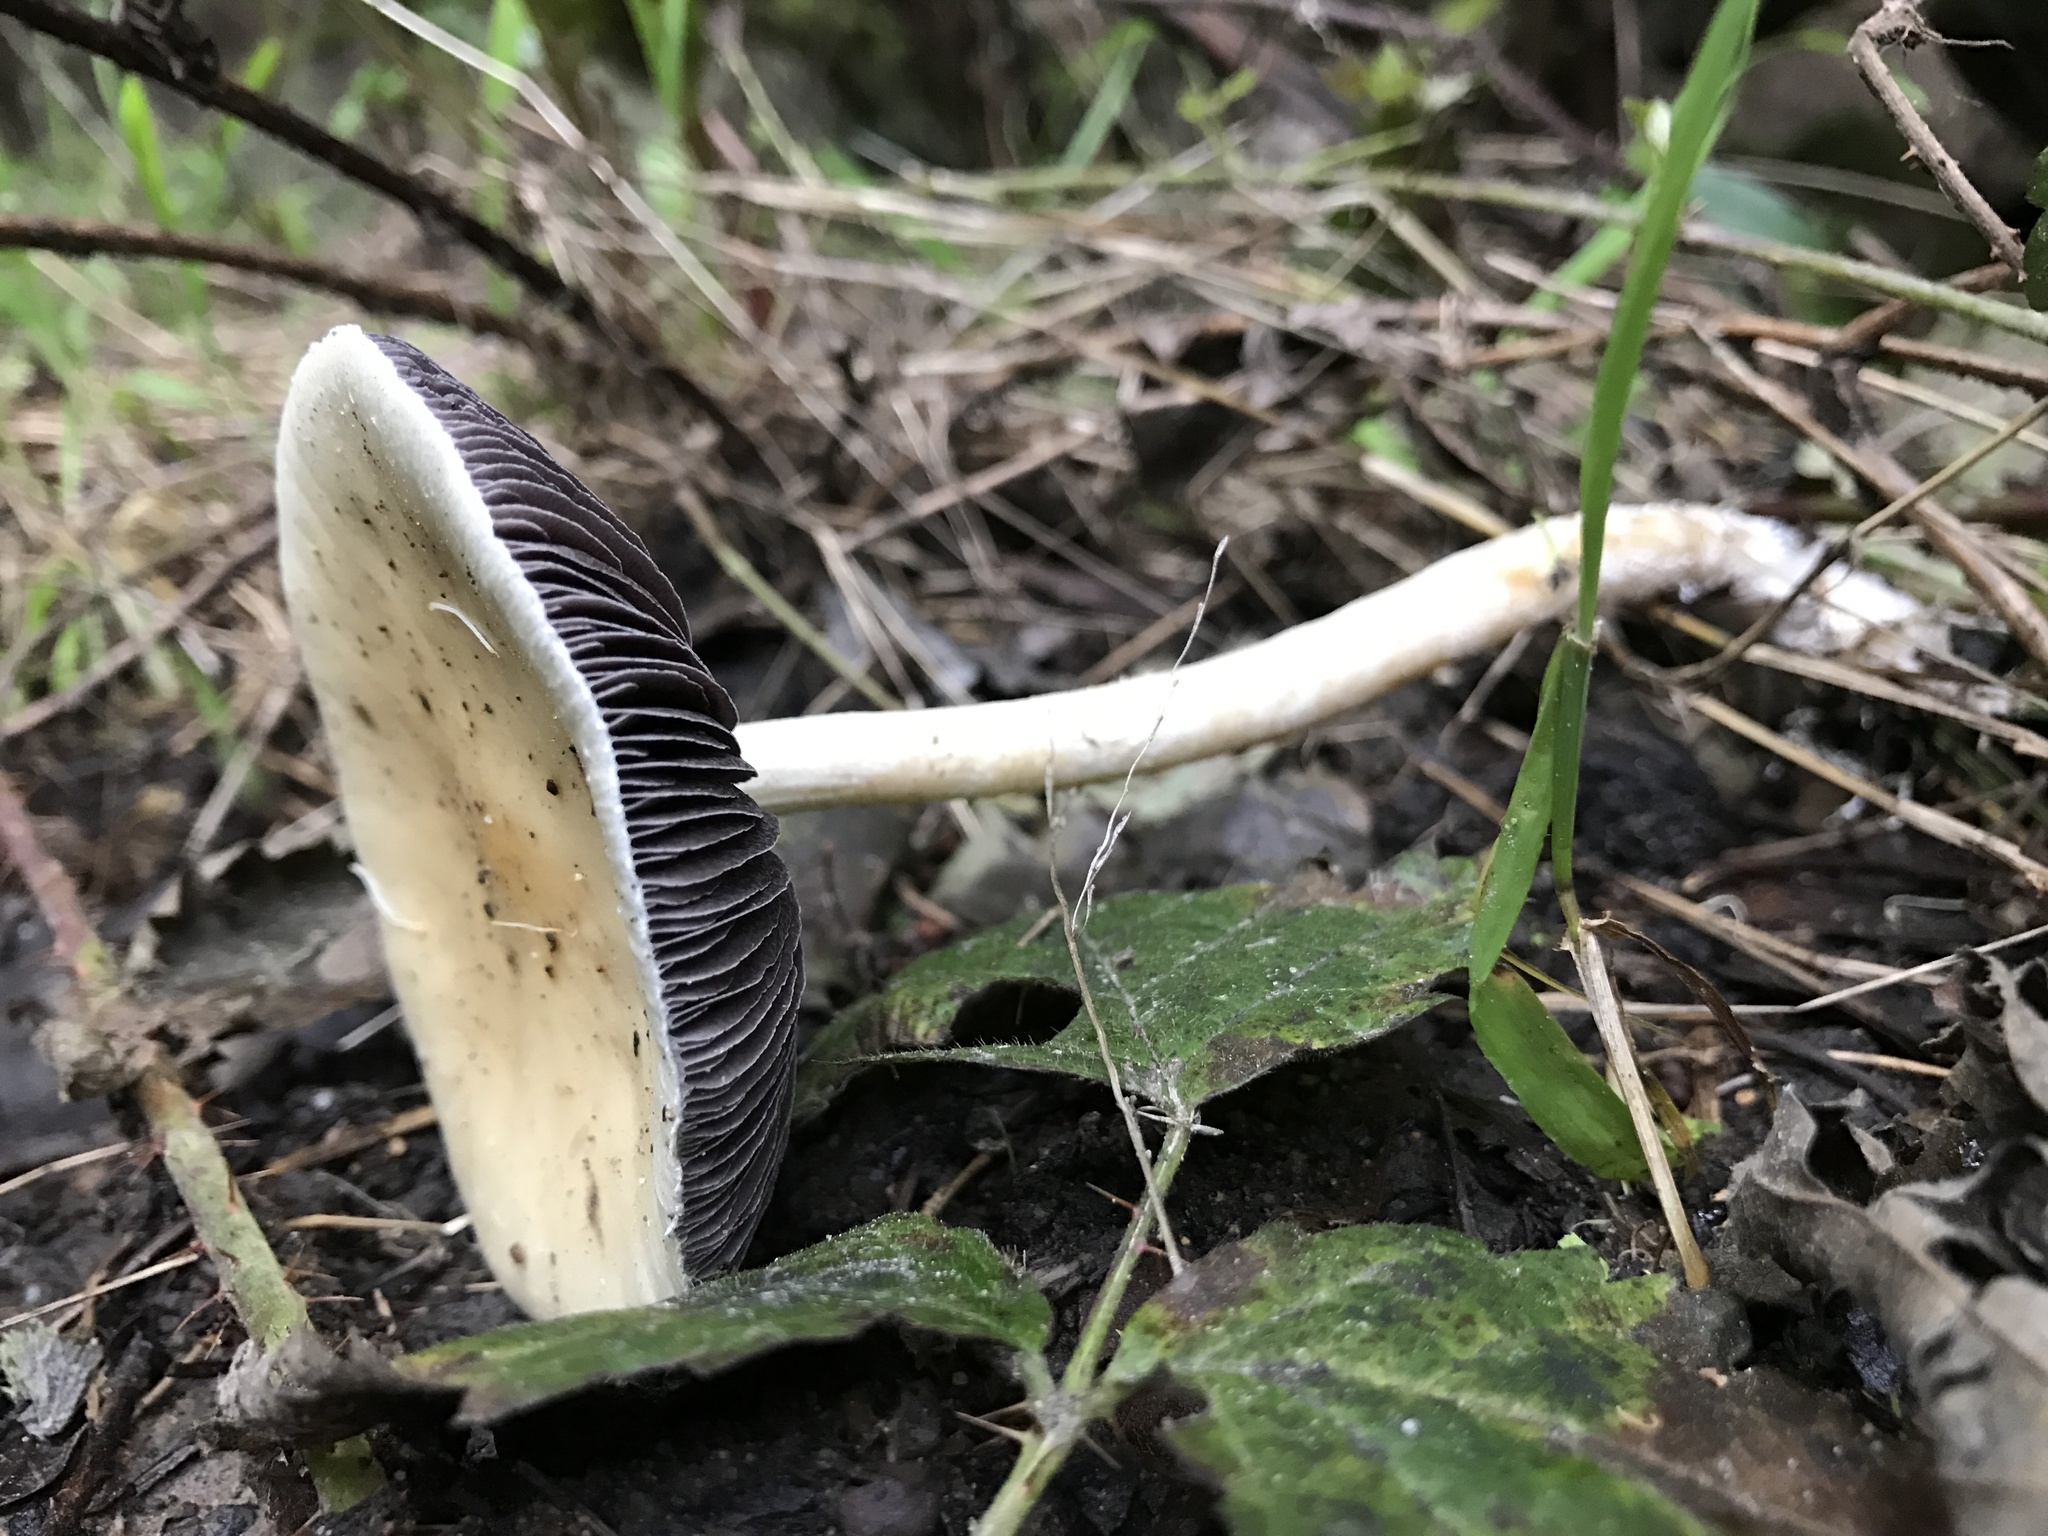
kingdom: Fungi
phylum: Basidiomycota
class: Agaricomycetes
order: Agaricales
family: Strophariaceae
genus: Leratiomyces
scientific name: Leratiomyces percevalii
